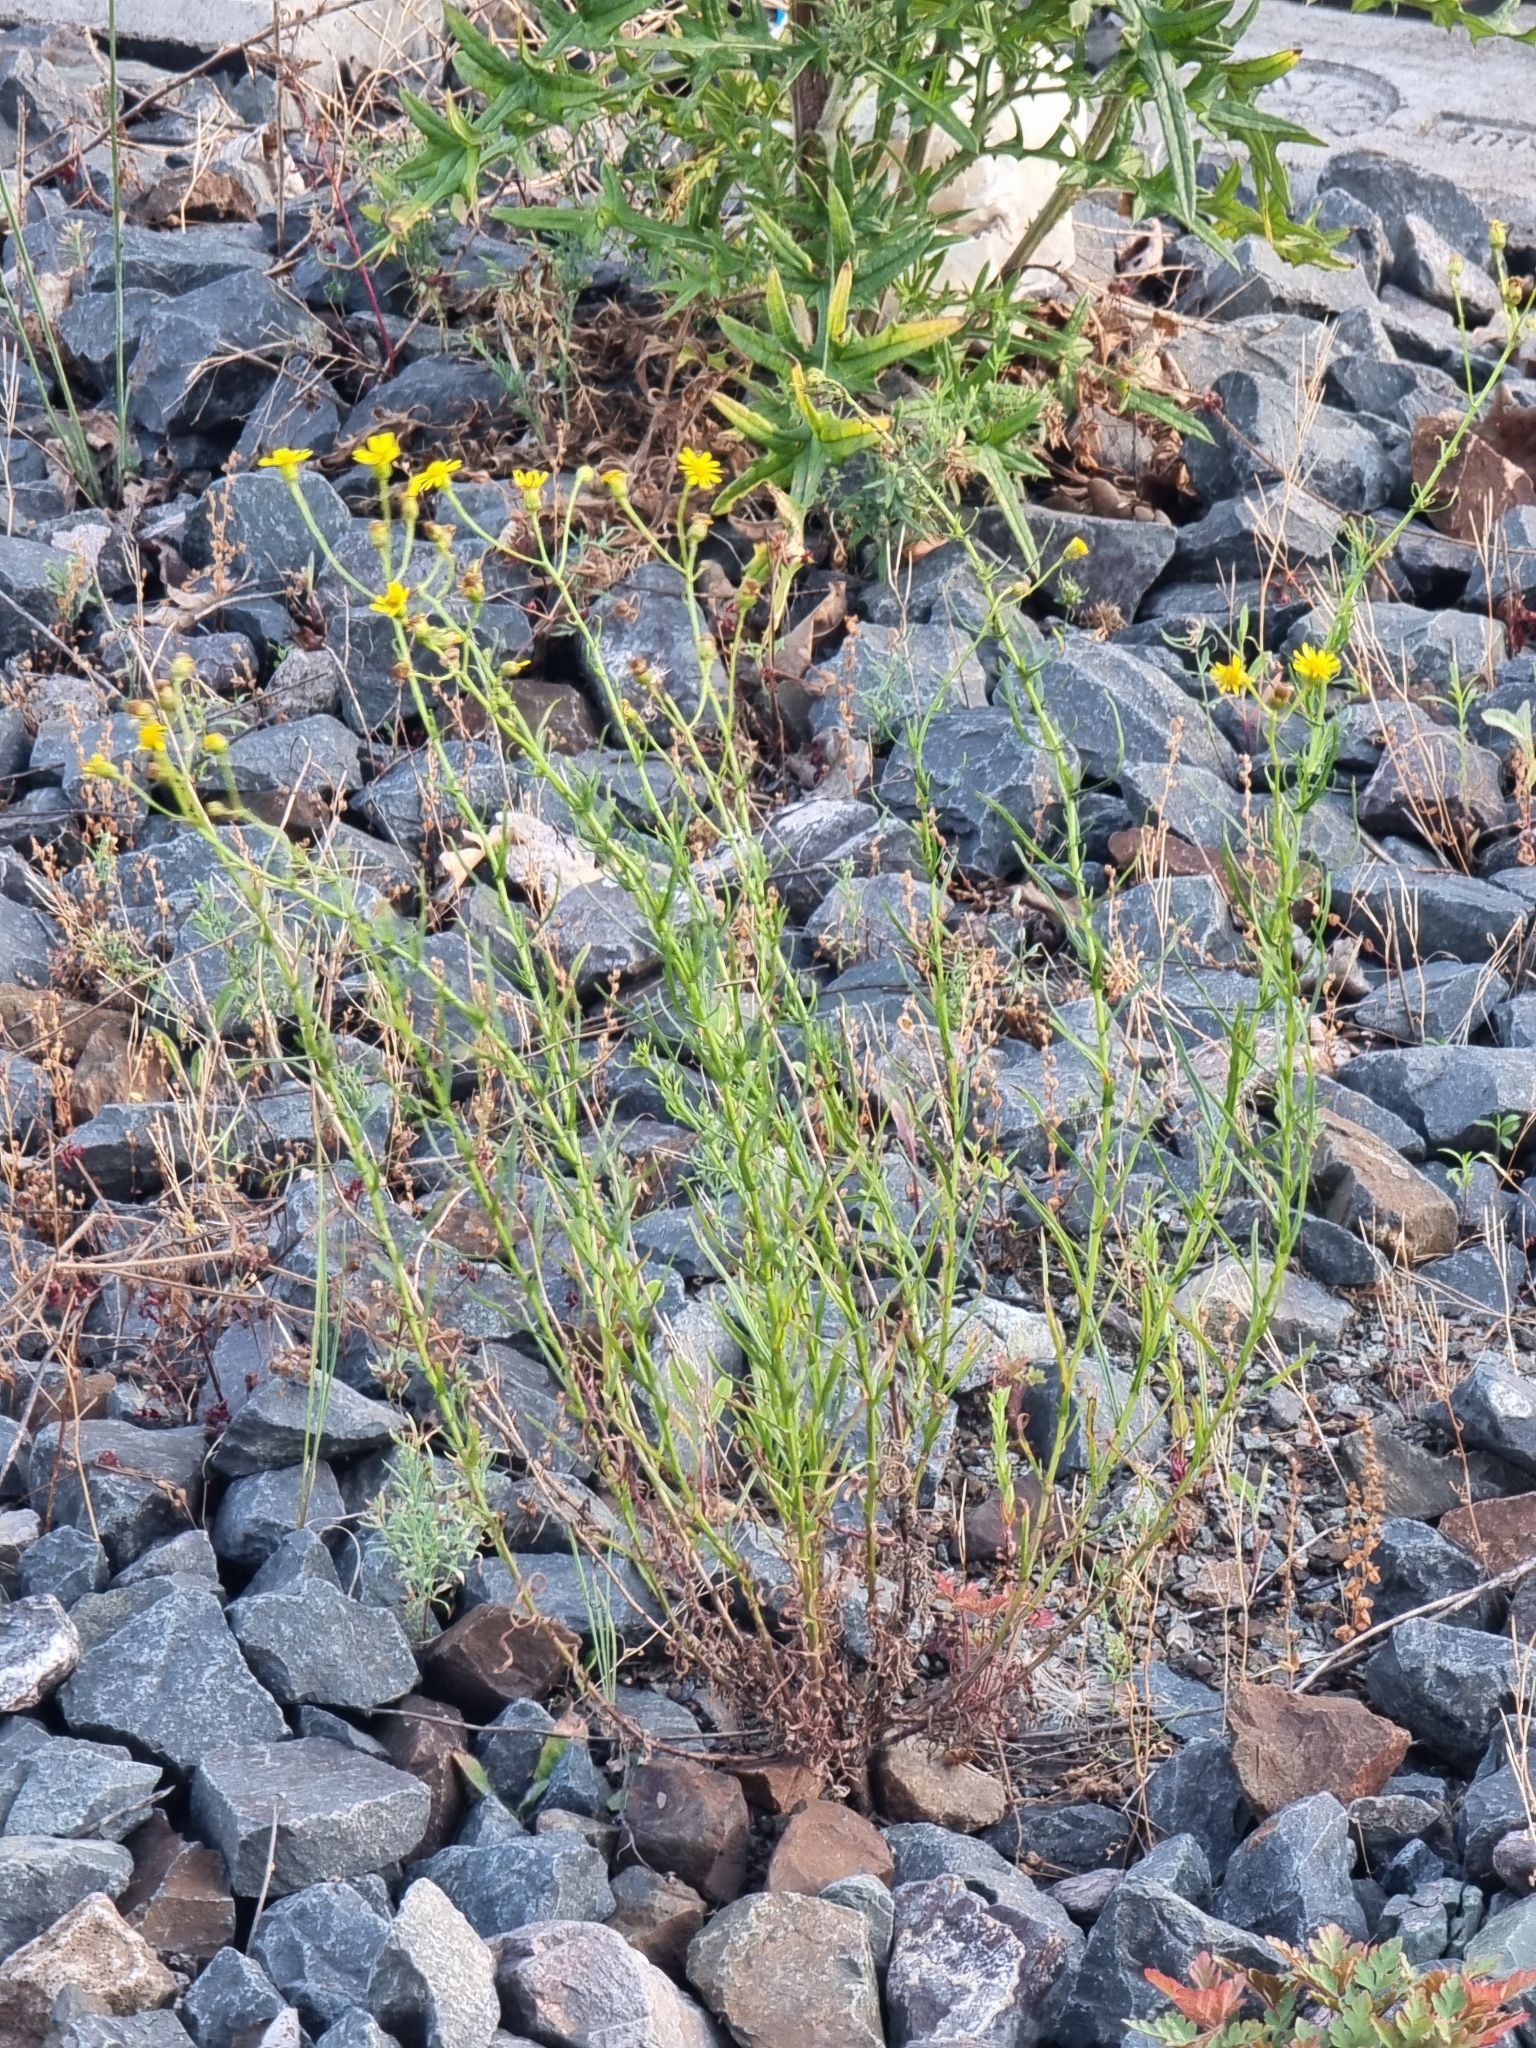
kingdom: Plantae
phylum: Tracheophyta
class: Magnoliopsida
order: Asterales
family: Asteraceae
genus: Senecio
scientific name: Senecio inaequidens
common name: Narrow-leaved ragwort
